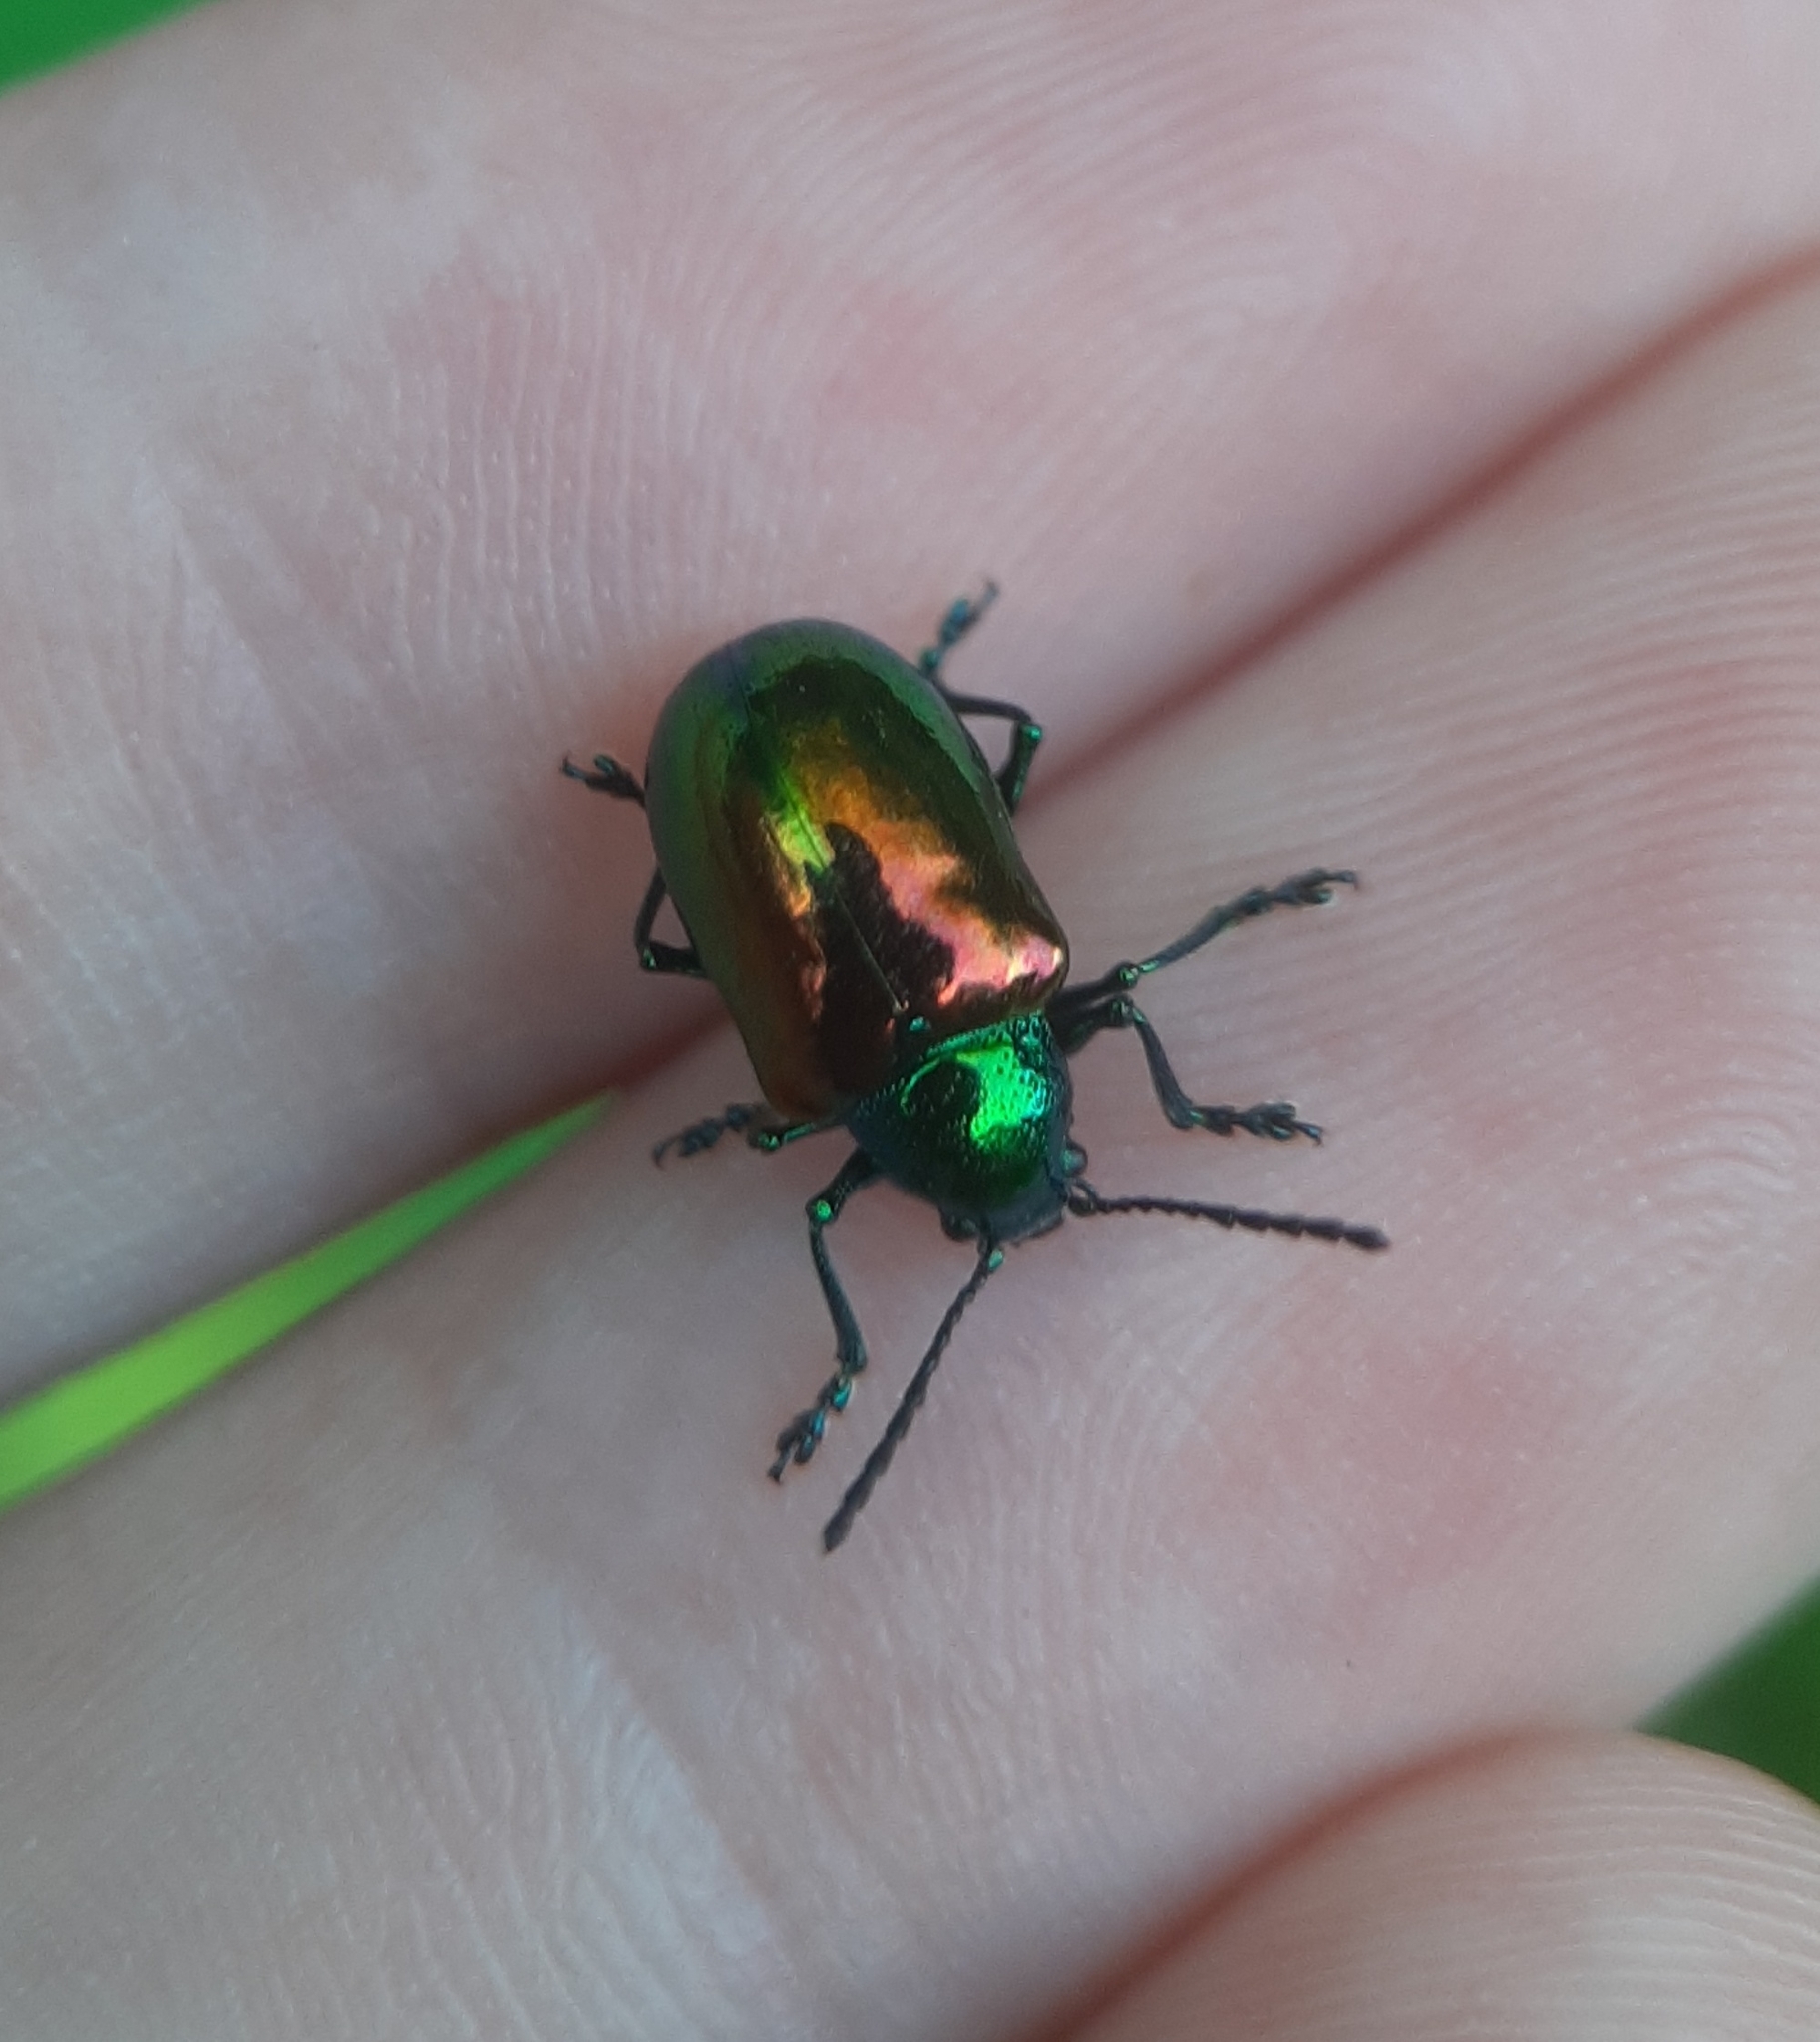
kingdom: Animalia
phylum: Arthropoda
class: Insecta
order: Coleoptera
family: Chrysomelidae
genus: Chrysochus
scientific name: Chrysochus auratus
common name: Dogbane leaf beetle
